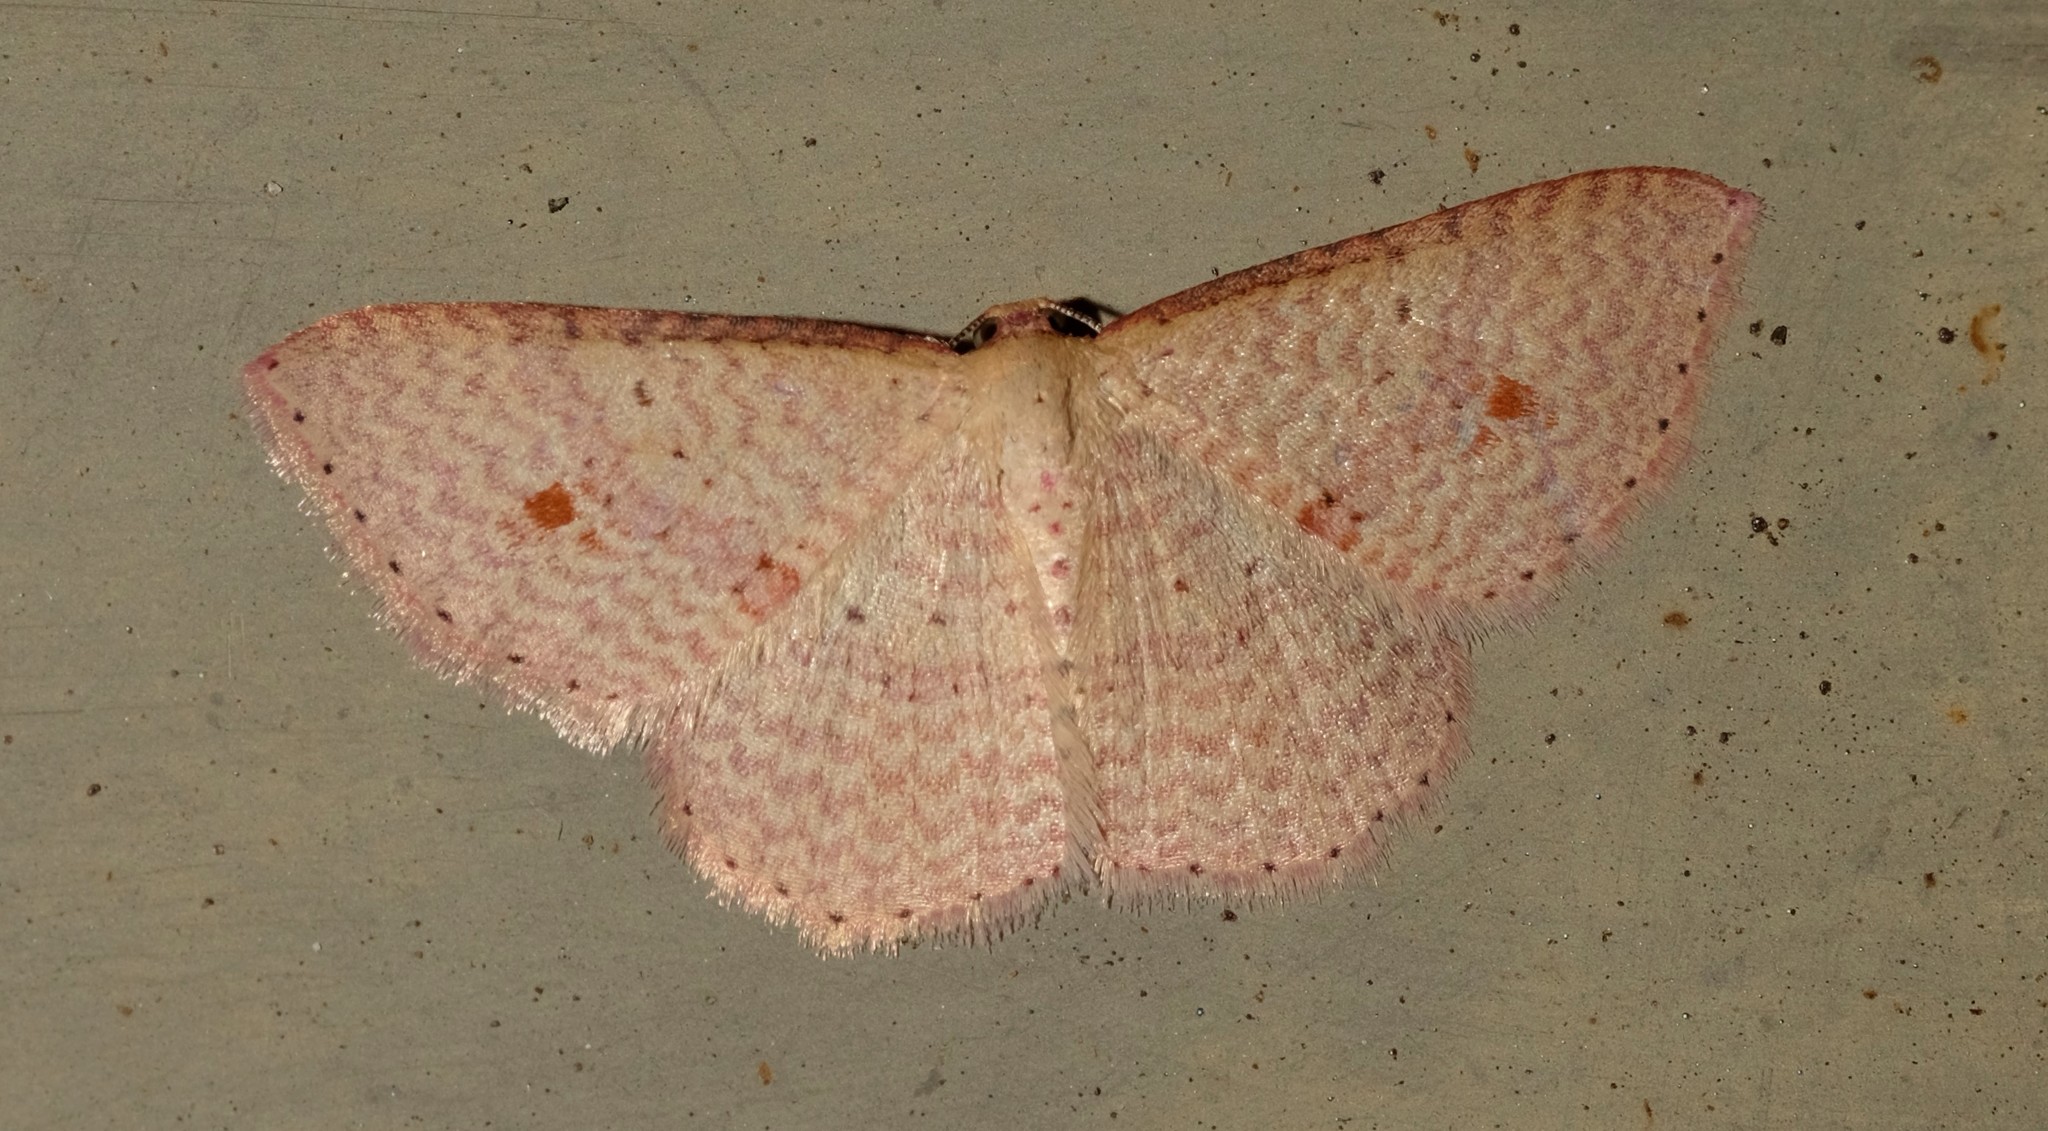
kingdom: Animalia
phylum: Arthropoda
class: Insecta
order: Lepidoptera
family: Geometridae
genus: Epicyme
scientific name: Epicyme rubropunctaria
